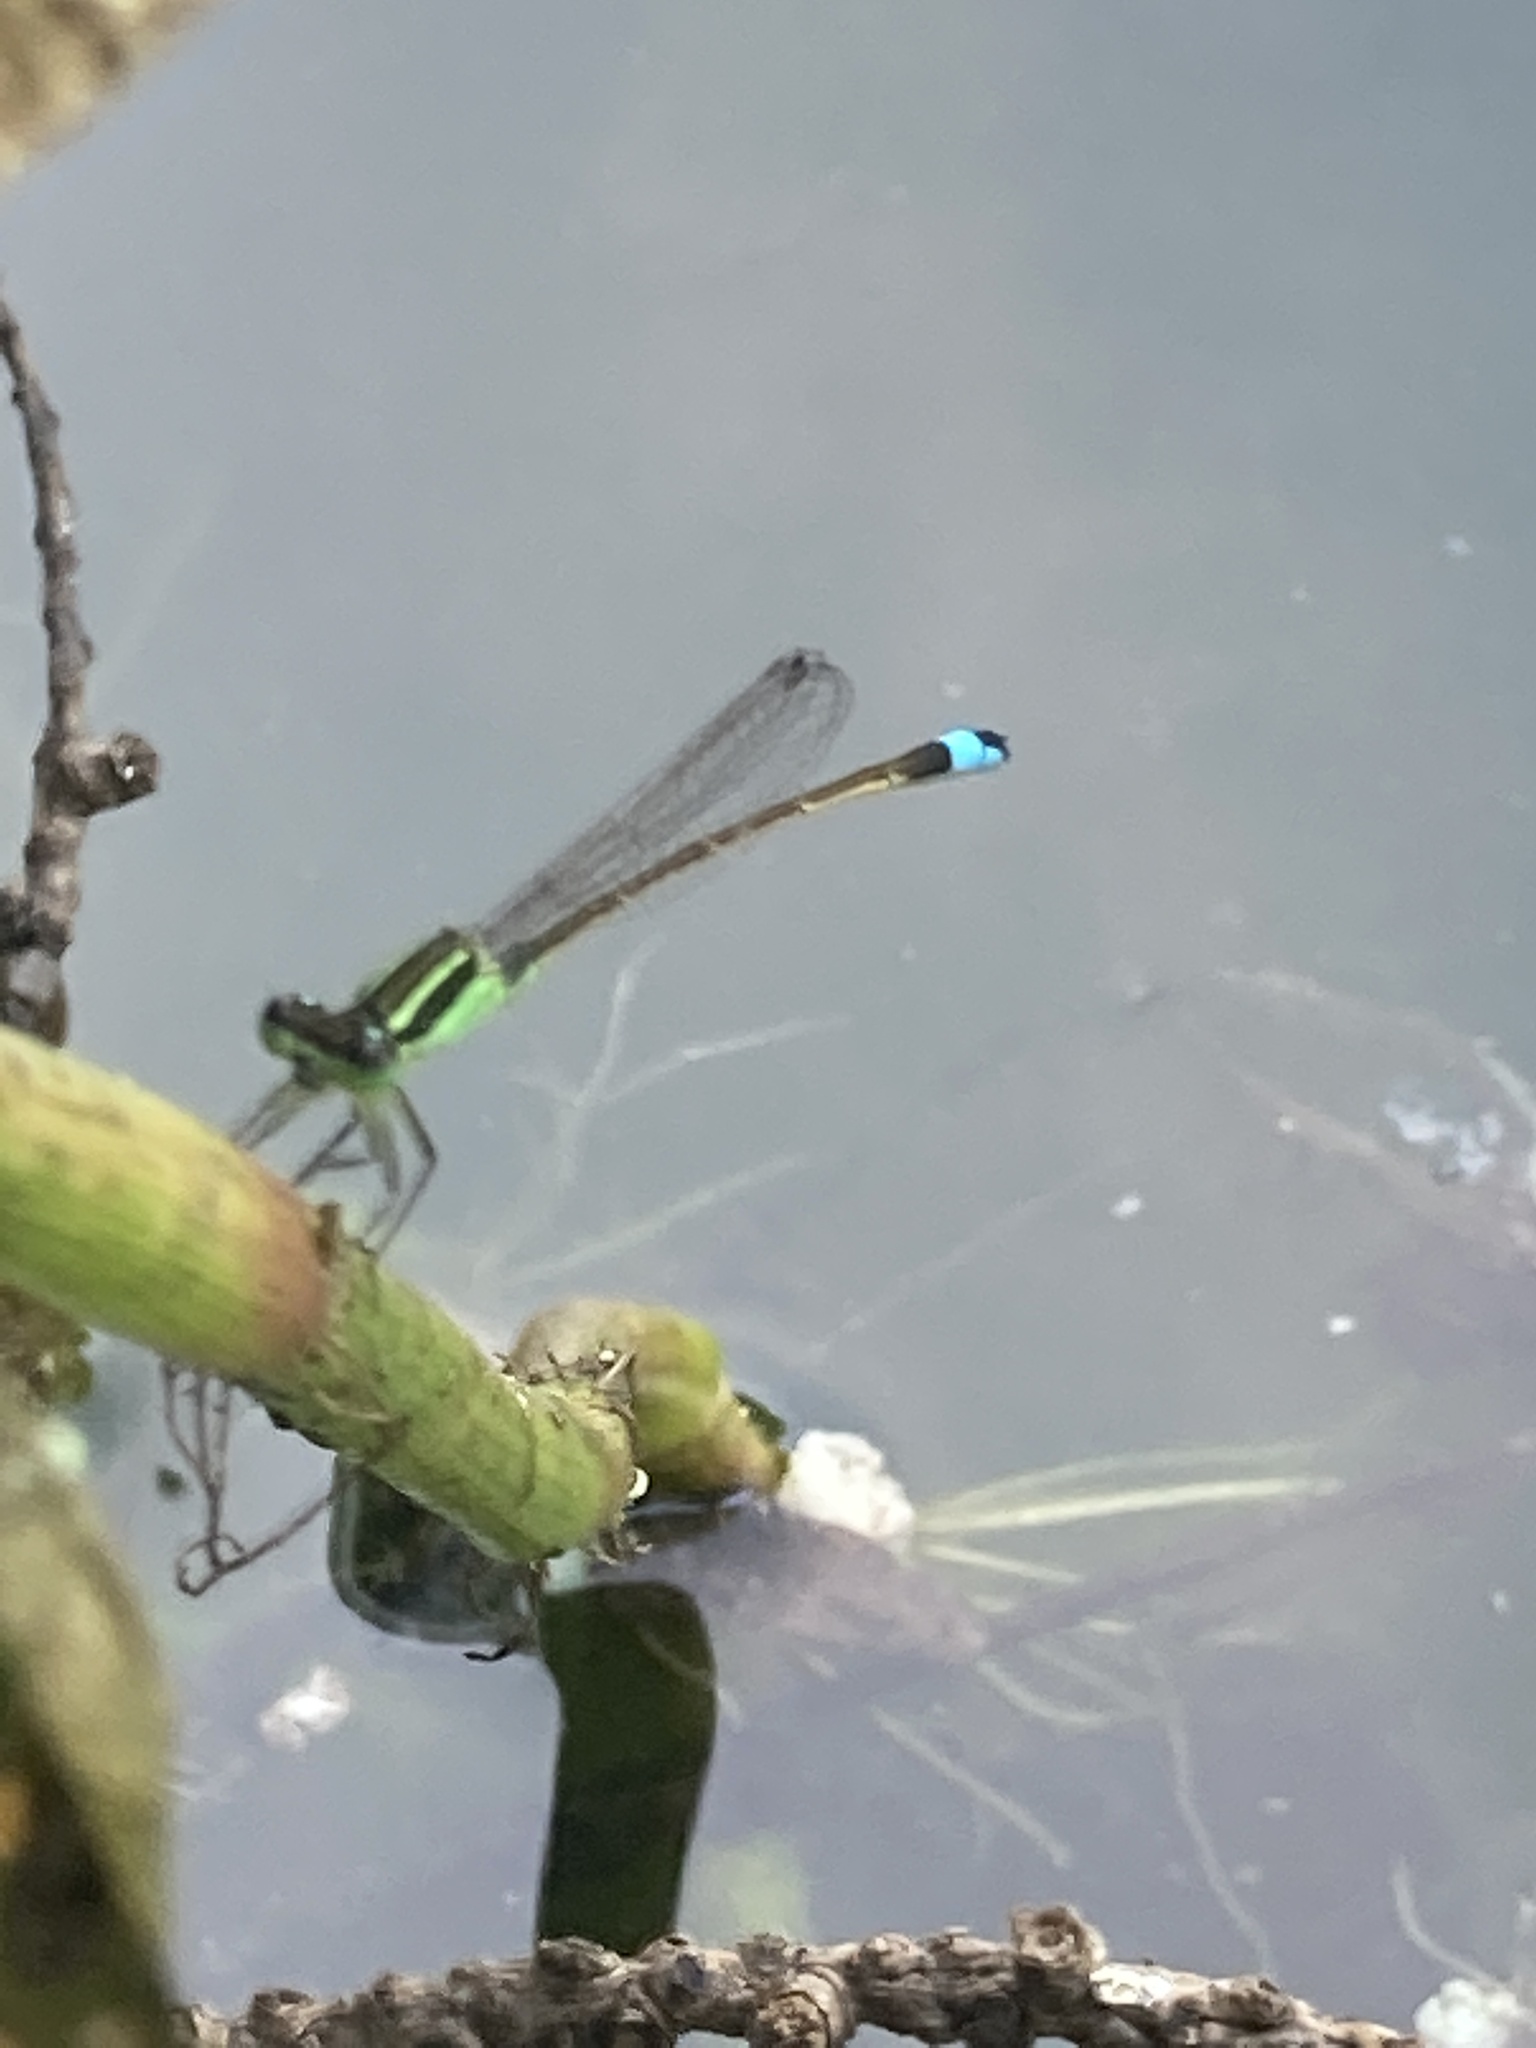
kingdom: Animalia
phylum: Arthropoda
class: Insecta
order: Odonata
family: Coenagrionidae
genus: Ischnura
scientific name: Ischnura ramburii
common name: Rambur's forktail
